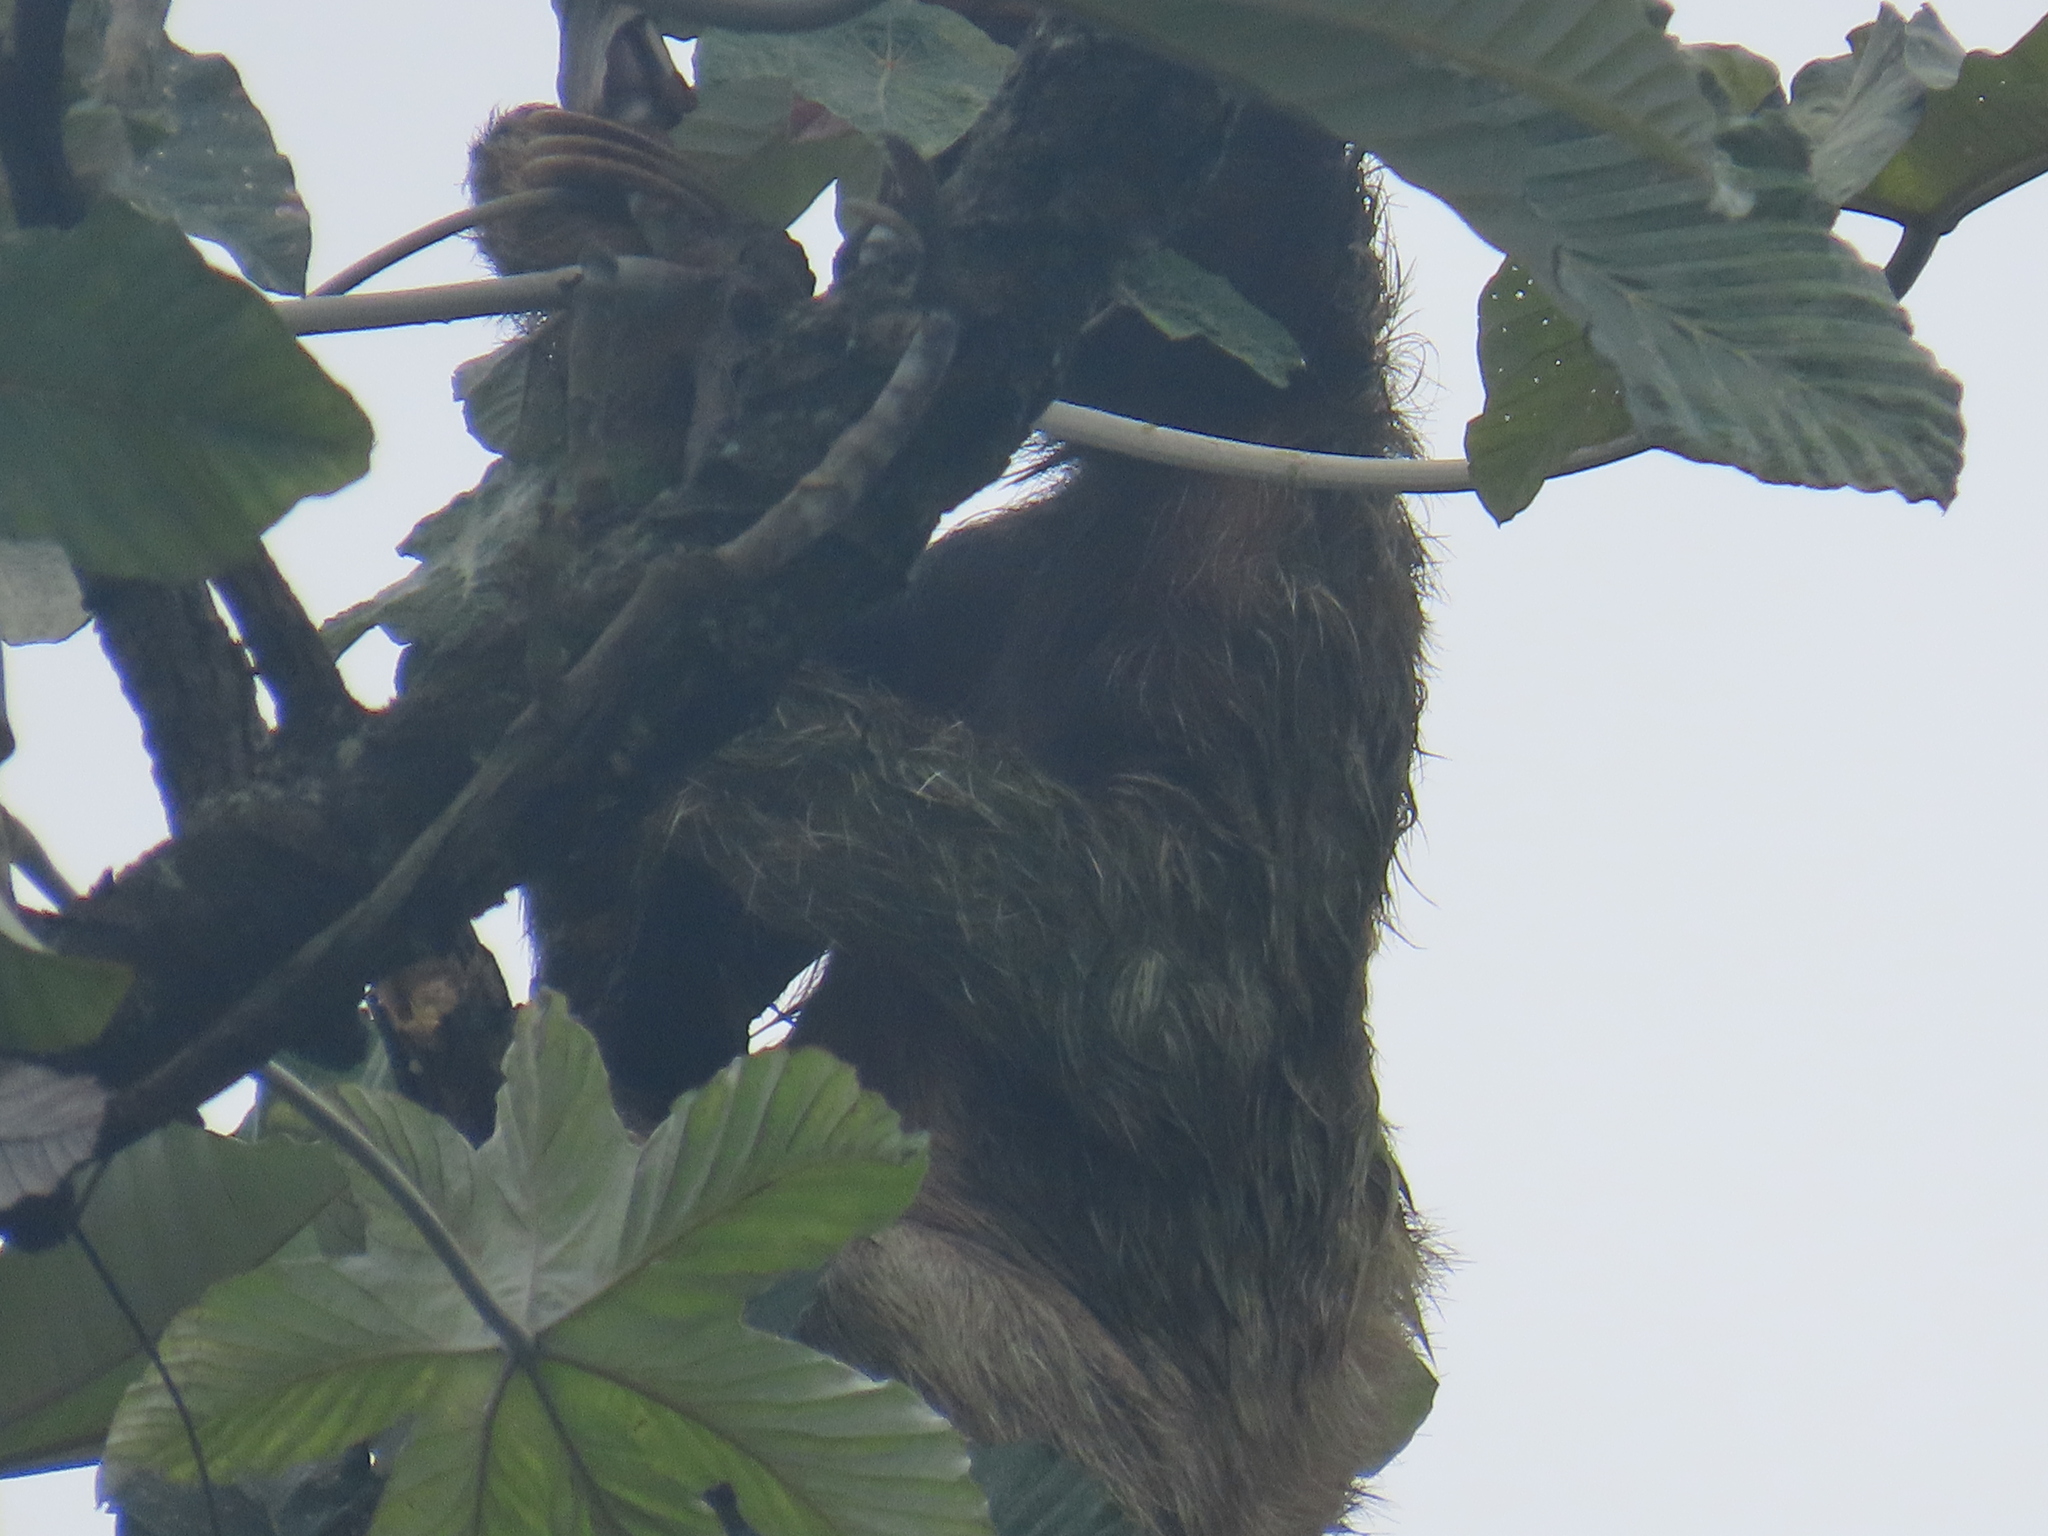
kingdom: Animalia
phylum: Chordata
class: Mammalia
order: Pilosa
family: Bradypodidae
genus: Bradypus
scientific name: Bradypus variegatus
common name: Brown-throated three-toed sloth
